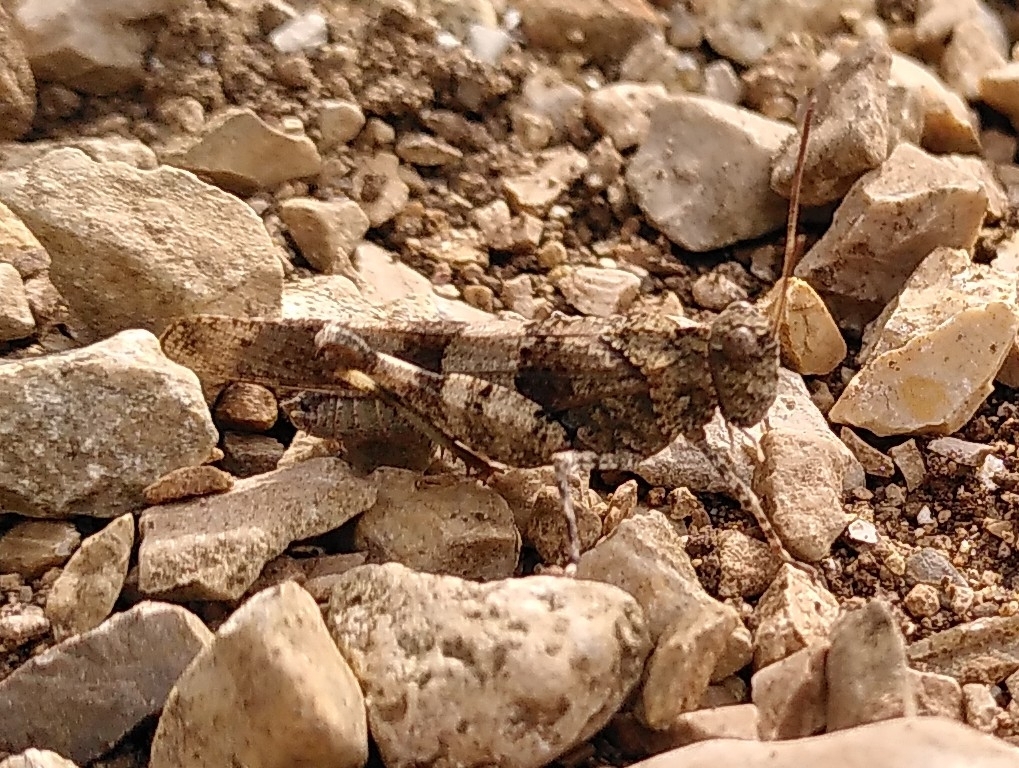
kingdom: Animalia
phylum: Arthropoda
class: Insecta
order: Orthoptera
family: Acrididae
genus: Oedipoda
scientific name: Oedipoda caerulescens
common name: Blue-winged grasshopper
